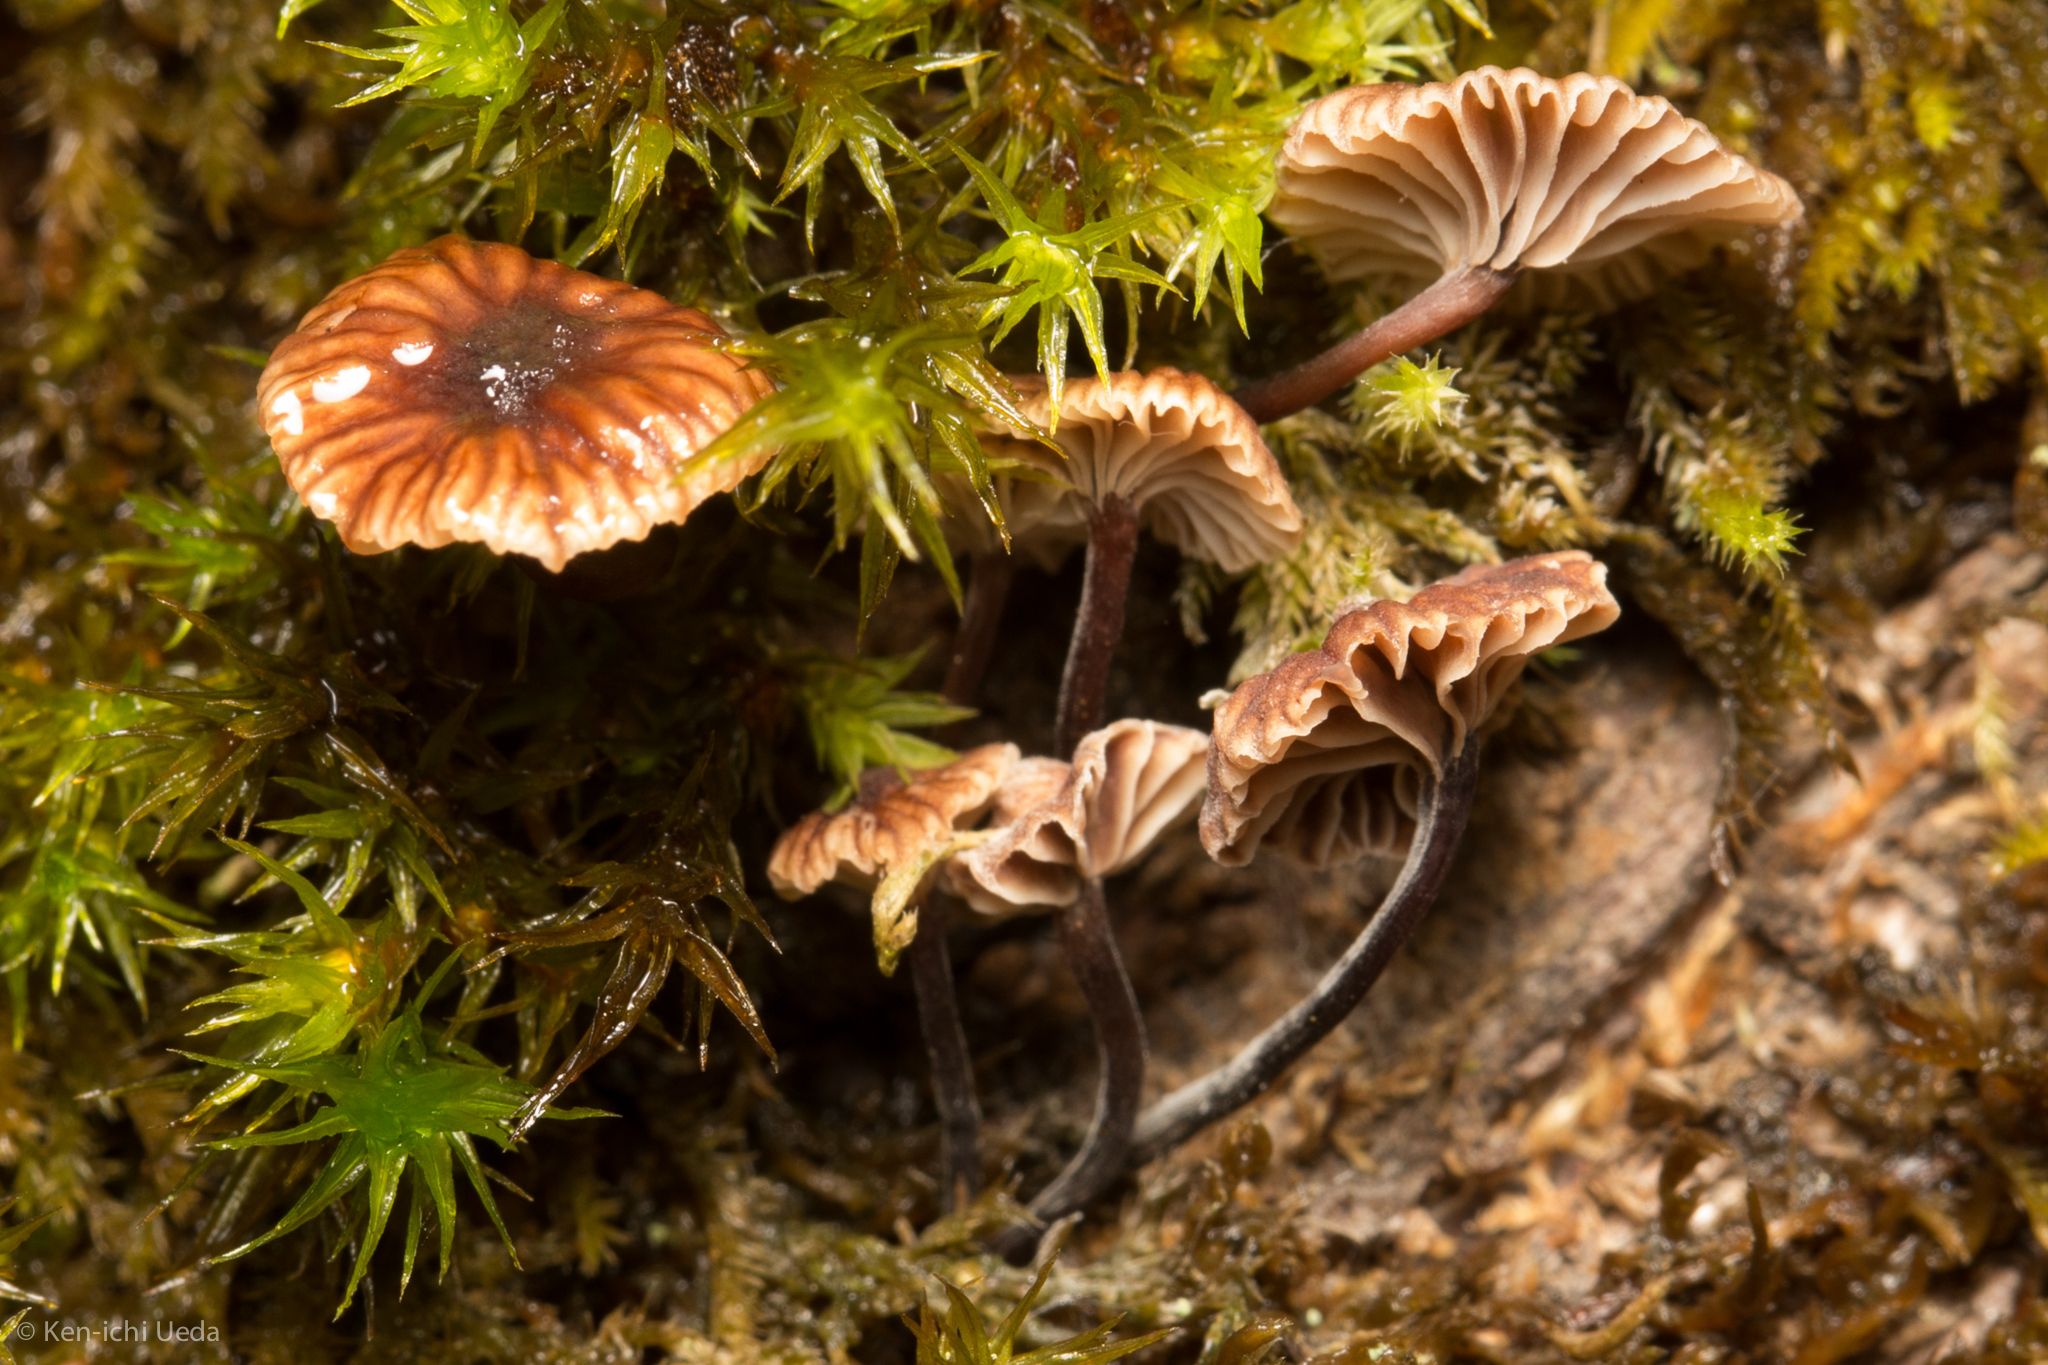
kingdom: Fungi
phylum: Basidiomycota
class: Agaricomycetes
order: Agaricales
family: Omphalotaceae
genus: Micromphale
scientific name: Micromphale arbuticola
